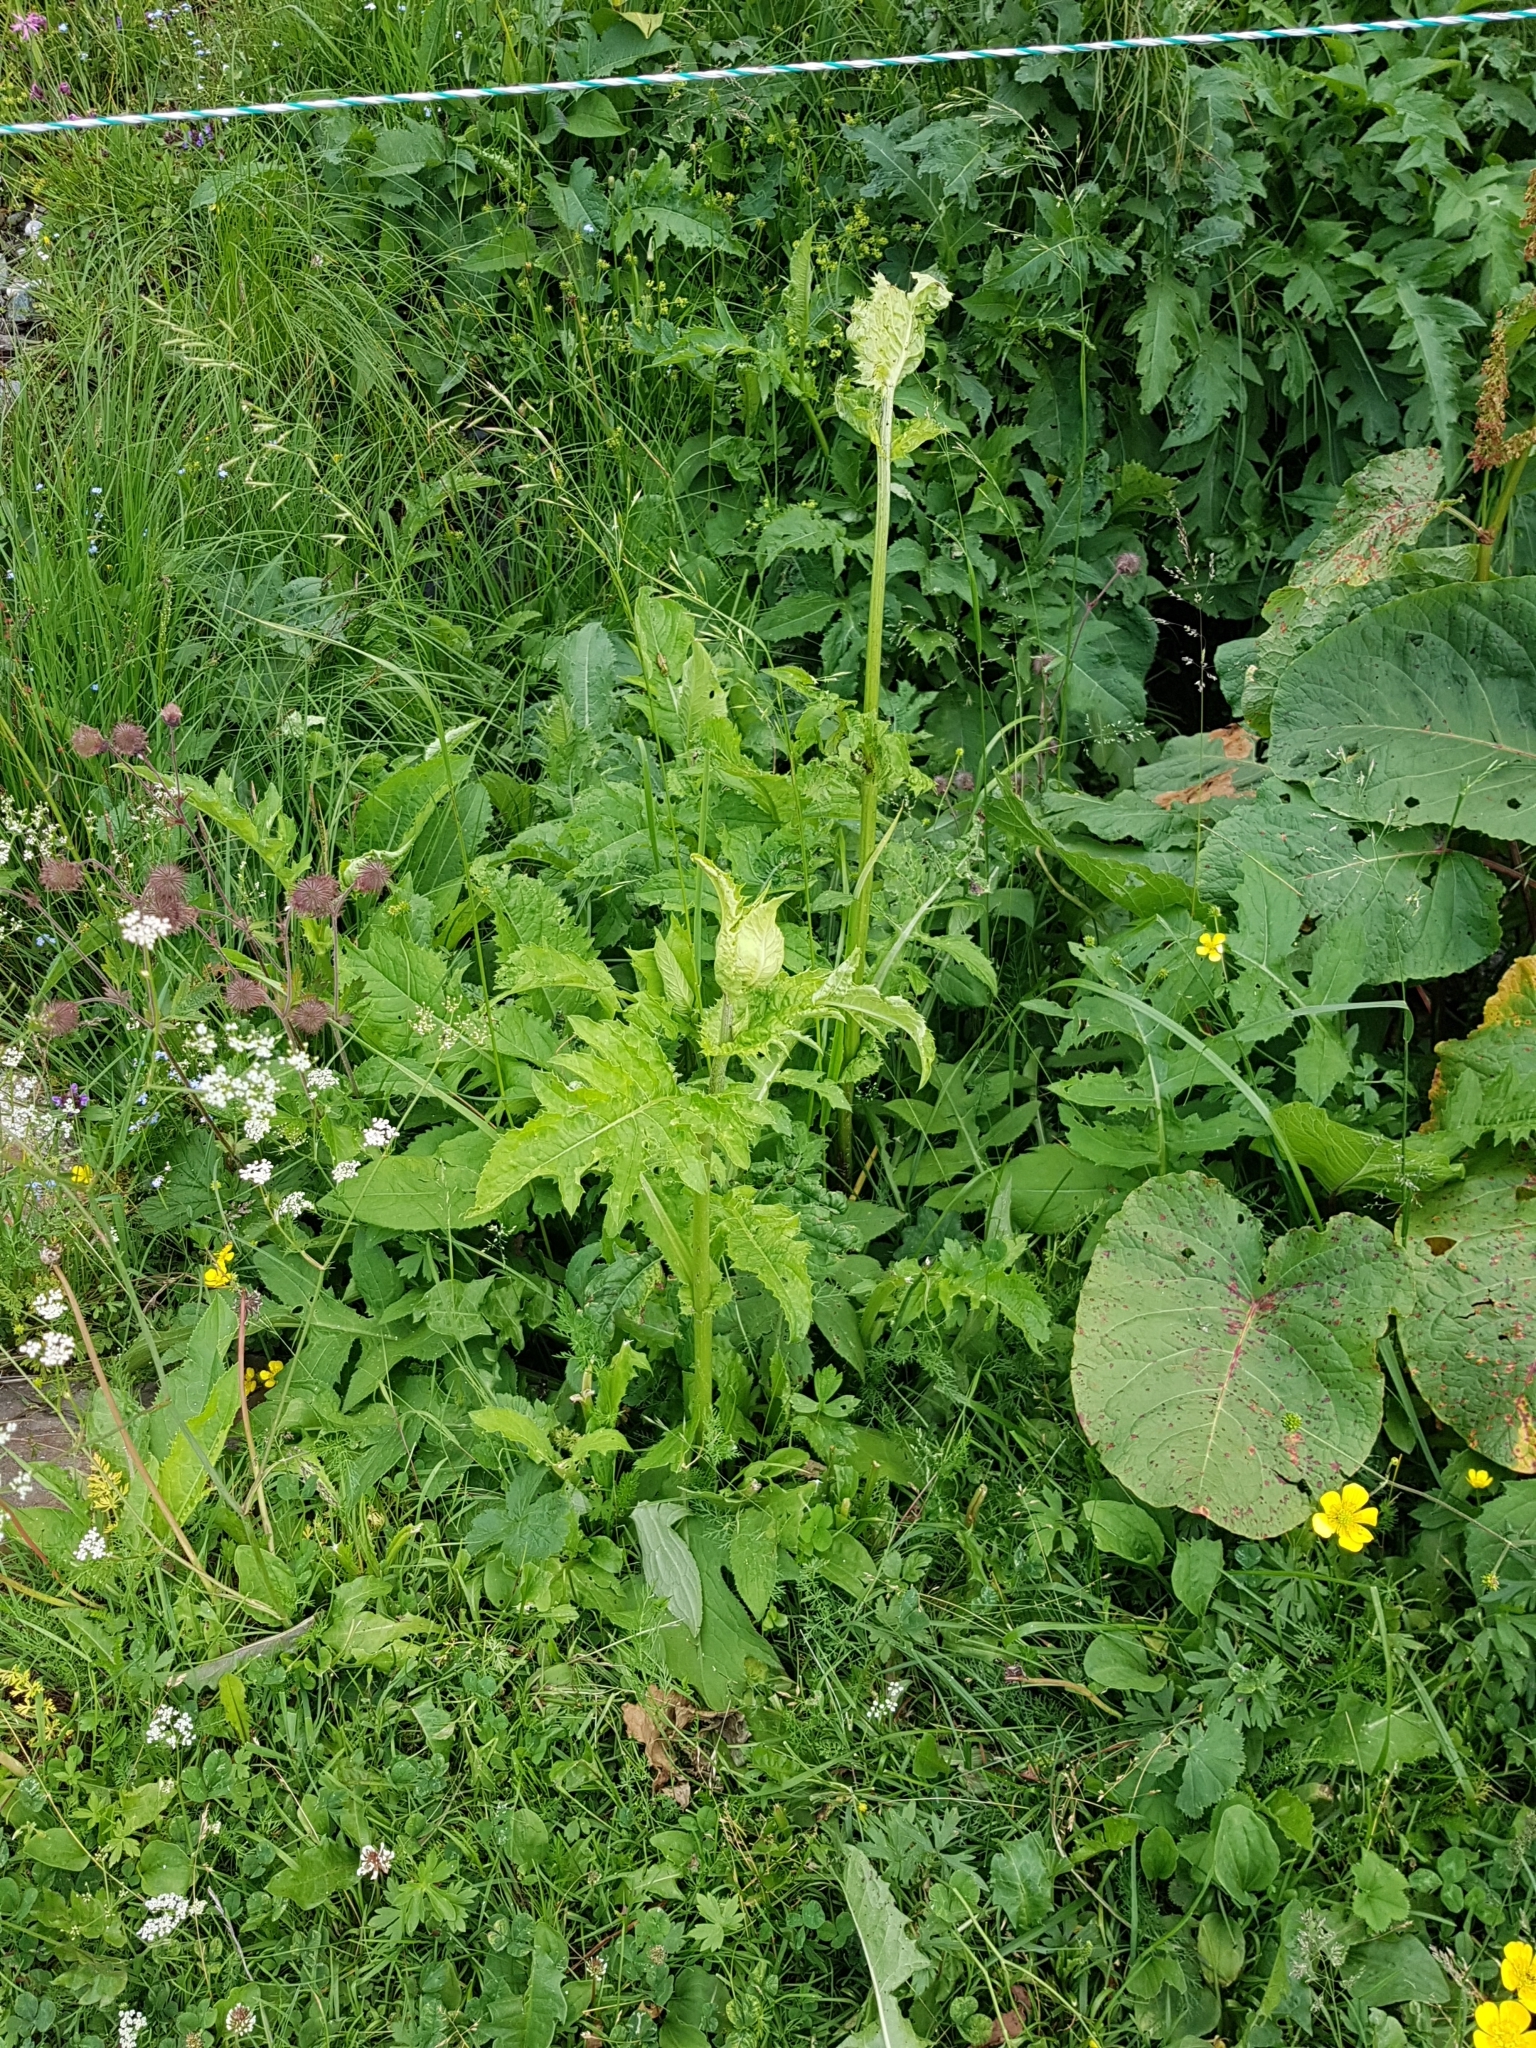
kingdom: Plantae
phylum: Tracheophyta
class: Magnoliopsida
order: Asterales
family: Asteraceae
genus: Cirsium
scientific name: Cirsium oleraceum
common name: Cabbage thistle
